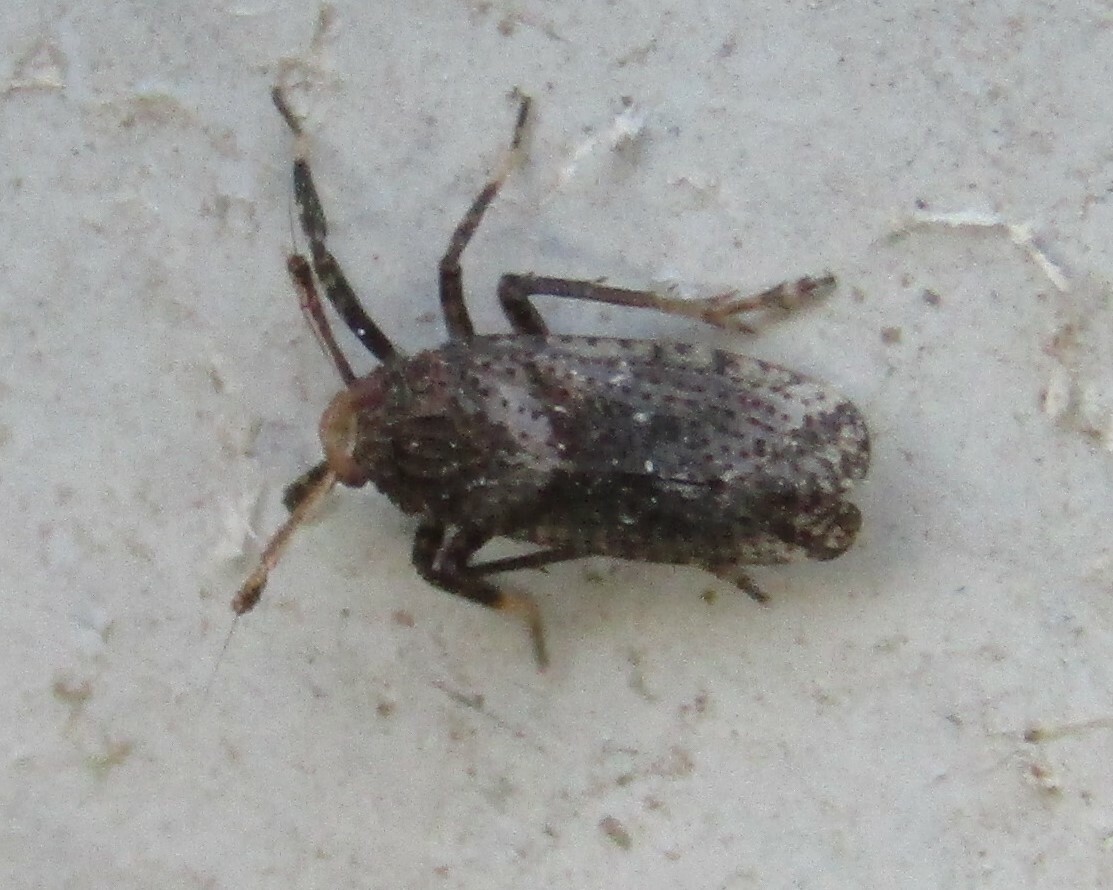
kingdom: Animalia
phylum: Arthropoda
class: Insecta
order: Hemiptera
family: Delphacidae
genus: Asiraca
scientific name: Asiraca clavicornis
